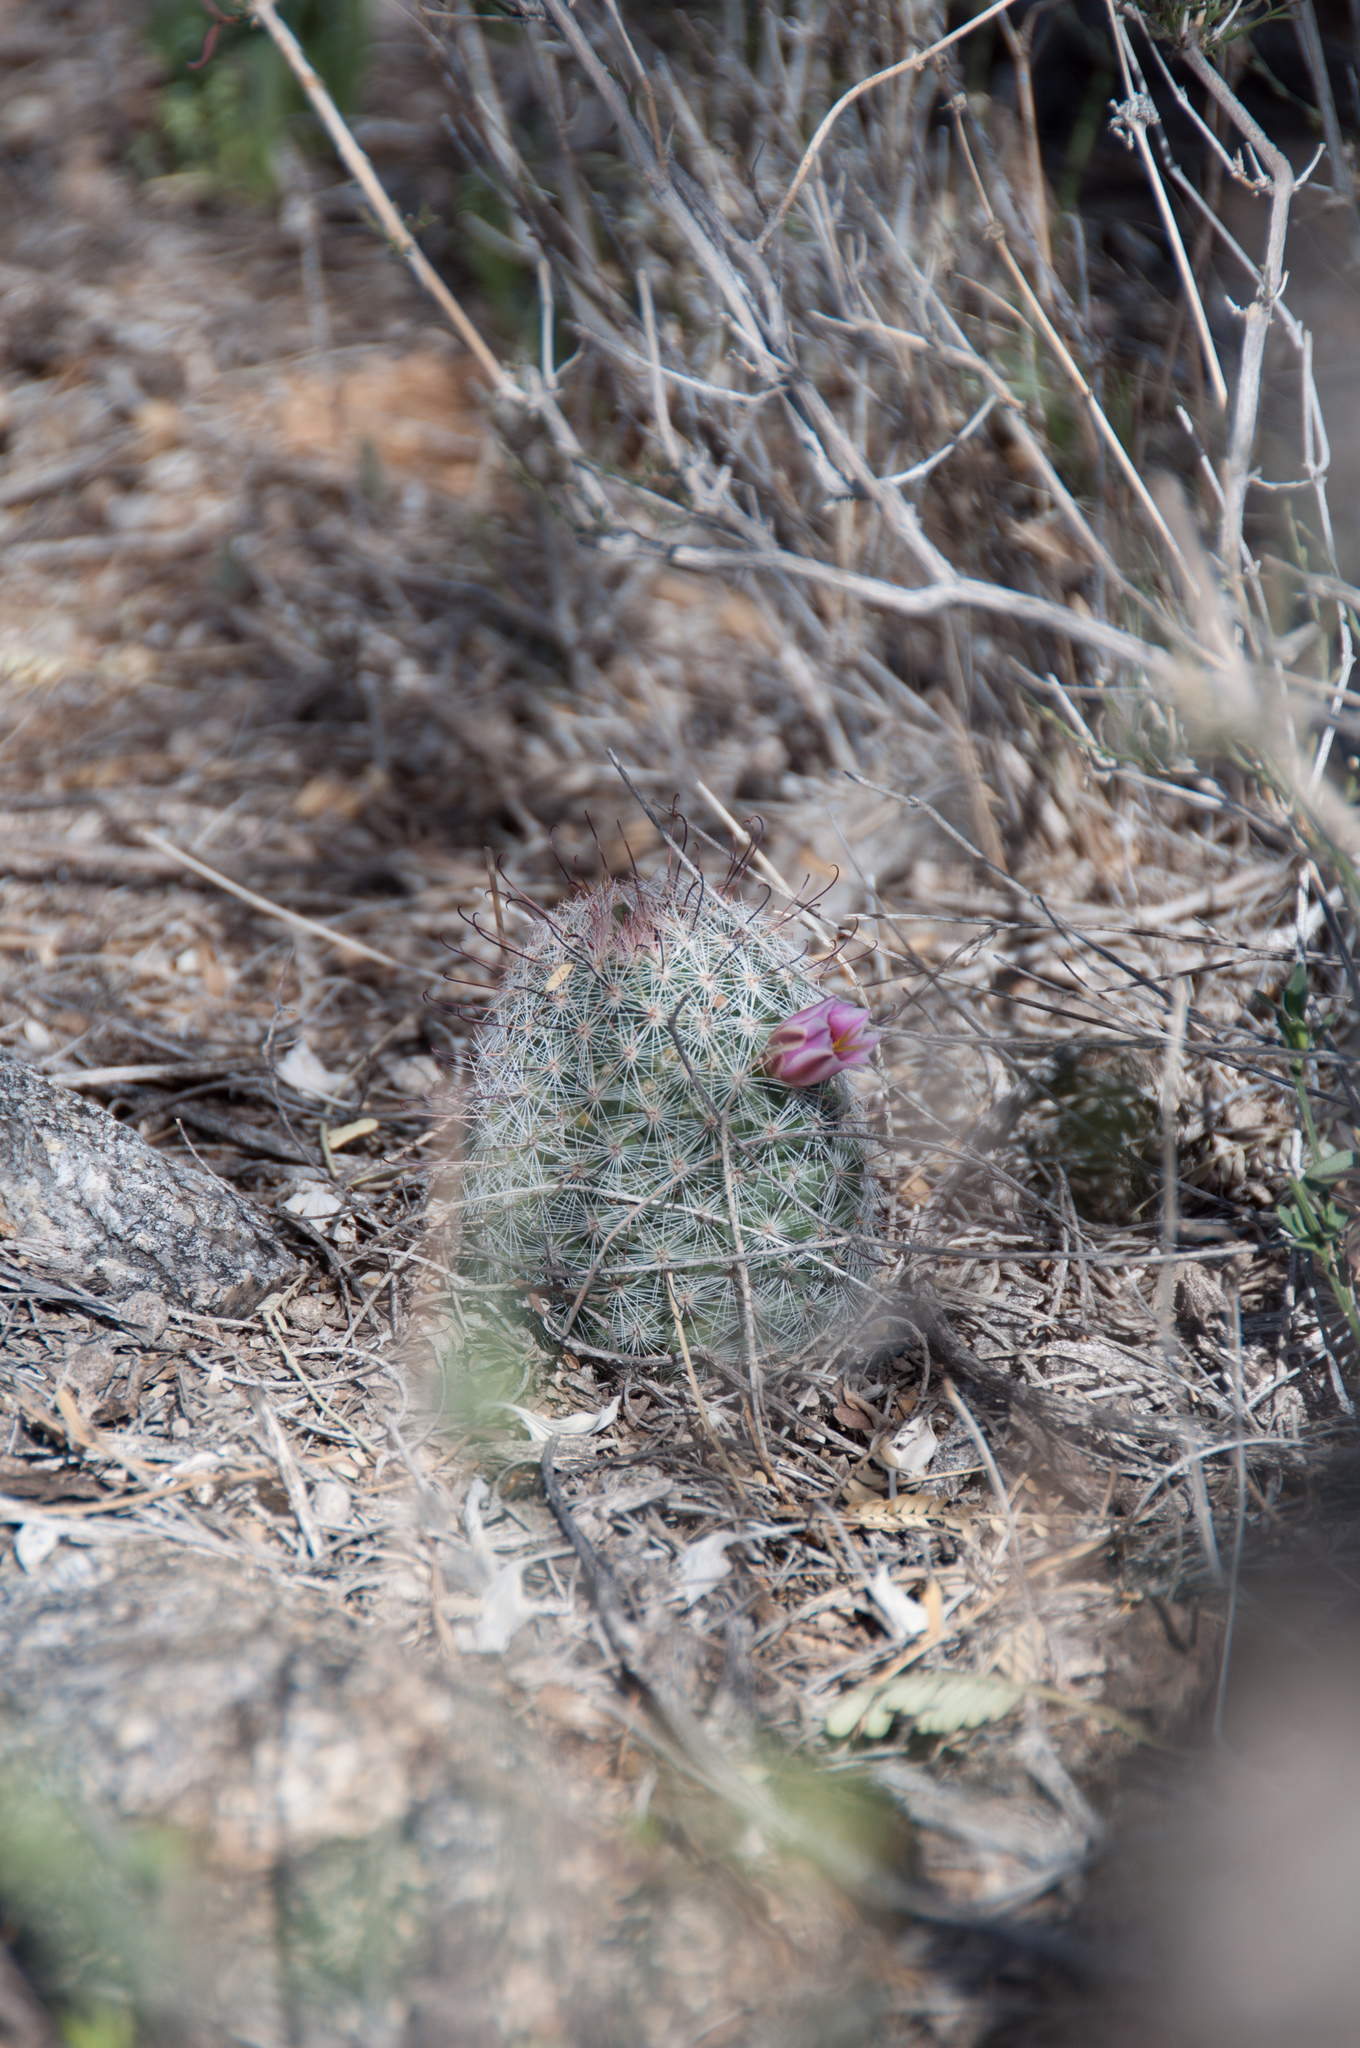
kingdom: Plantae
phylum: Tracheophyta
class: Magnoliopsida
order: Caryophyllales
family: Cactaceae
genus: Cochemiea
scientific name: Cochemiea grahamii
